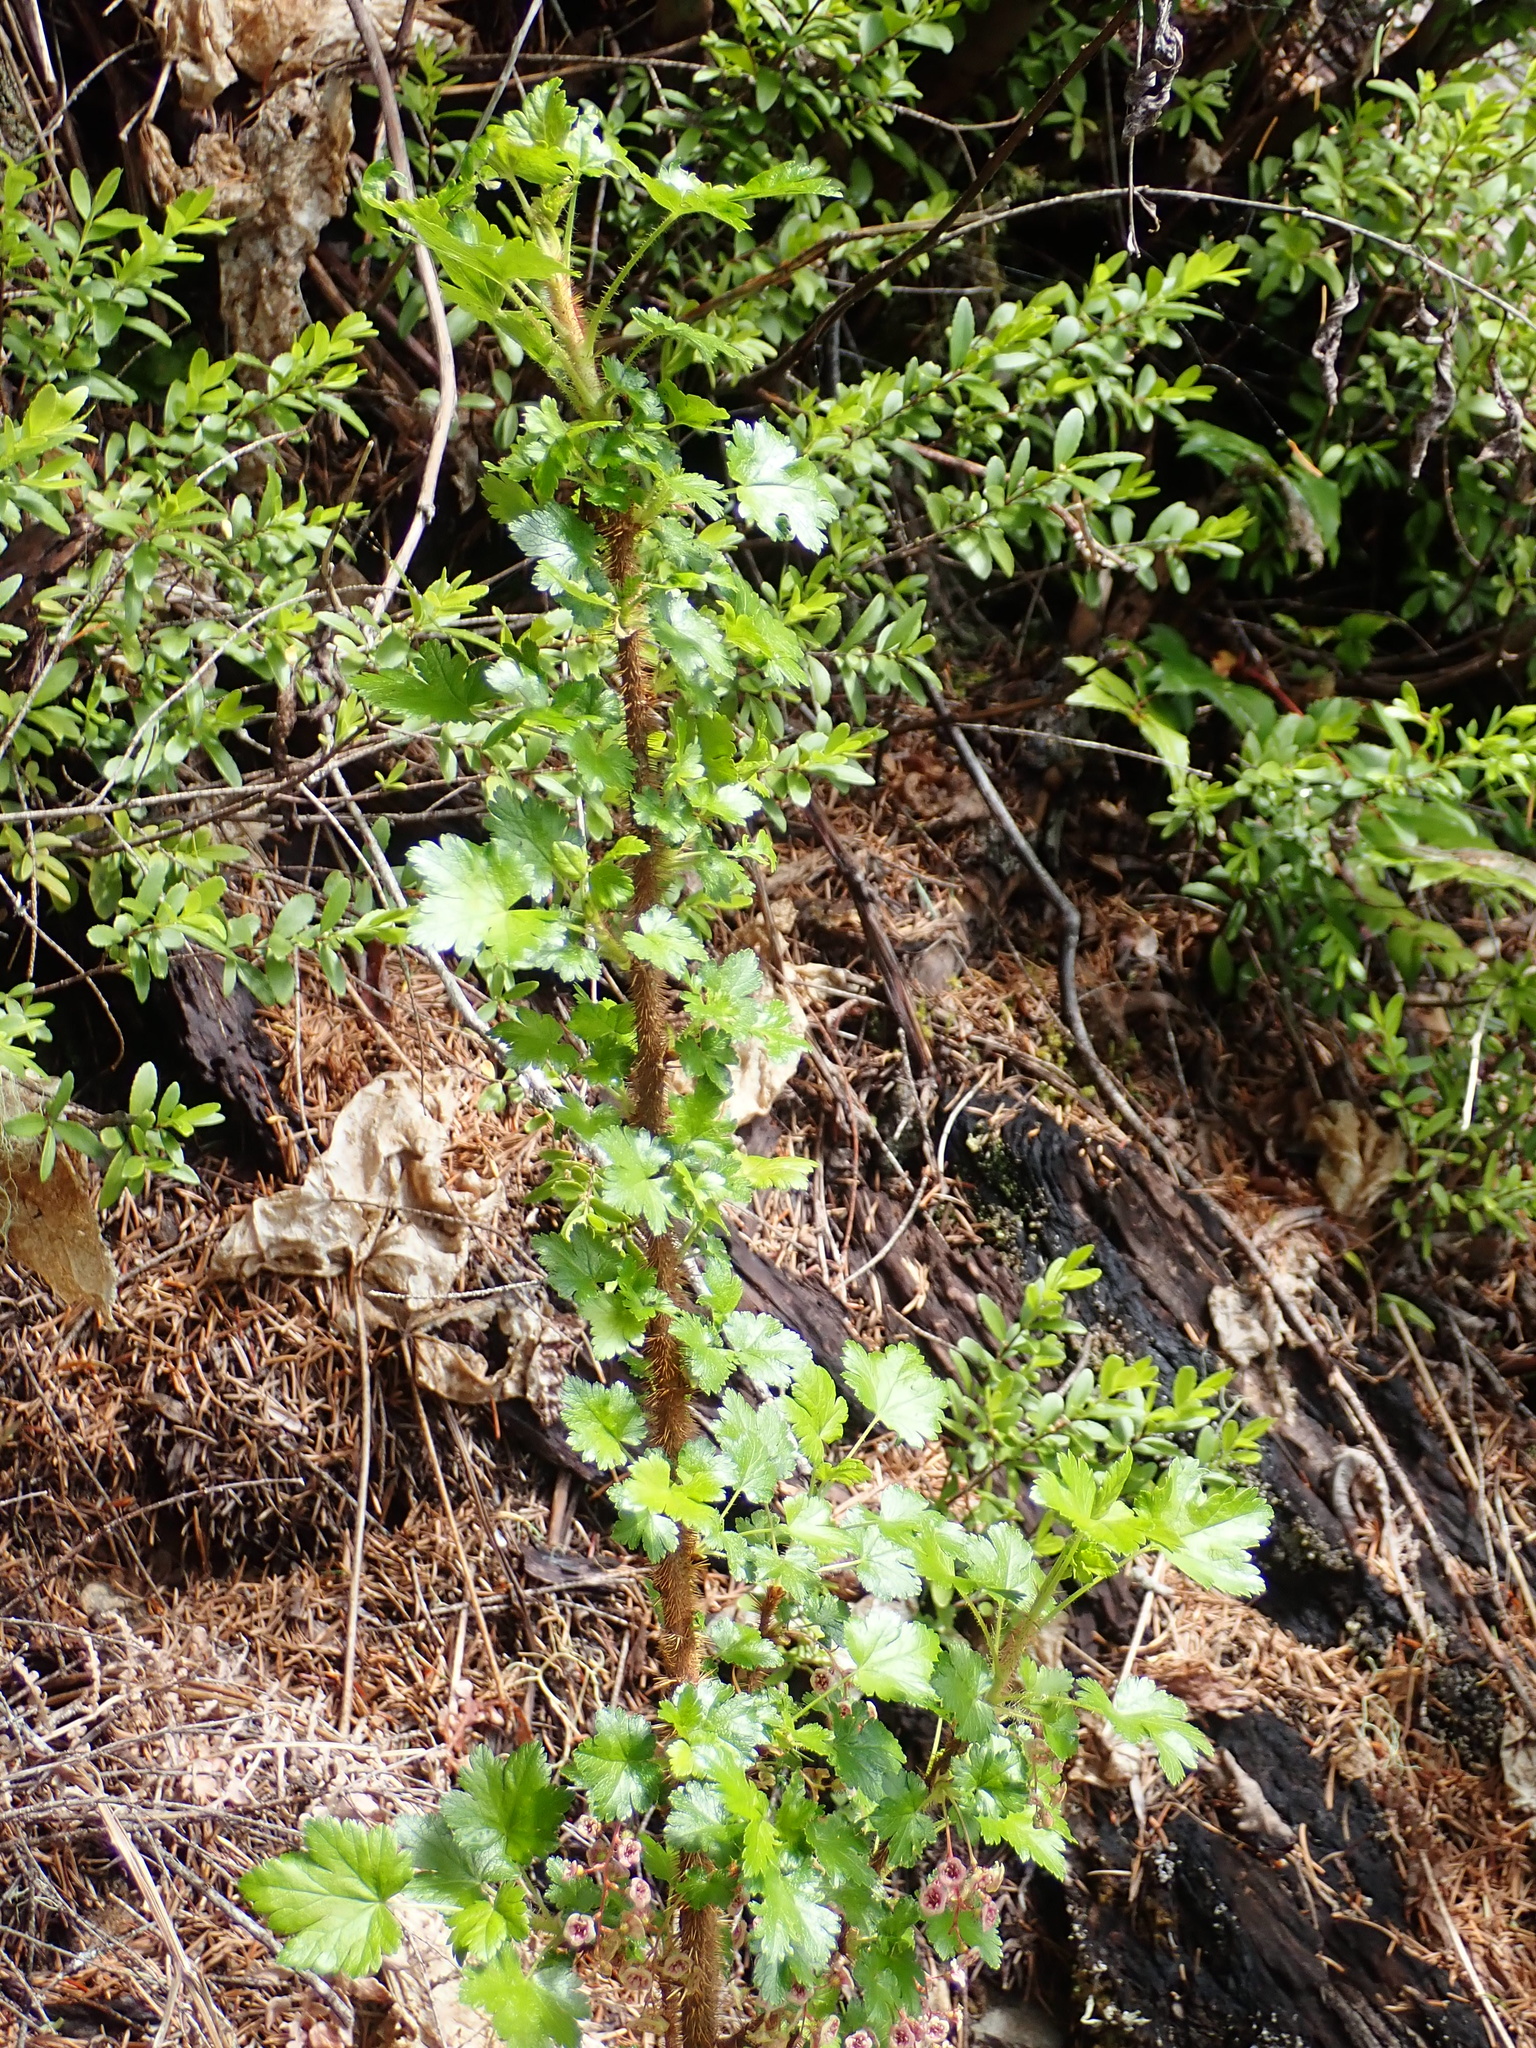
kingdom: Plantae
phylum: Tracheophyta
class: Magnoliopsida
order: Saxifragales
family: Grossulariaceae
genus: Ribes
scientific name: Ribes lacustre
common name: Black gooseberry
